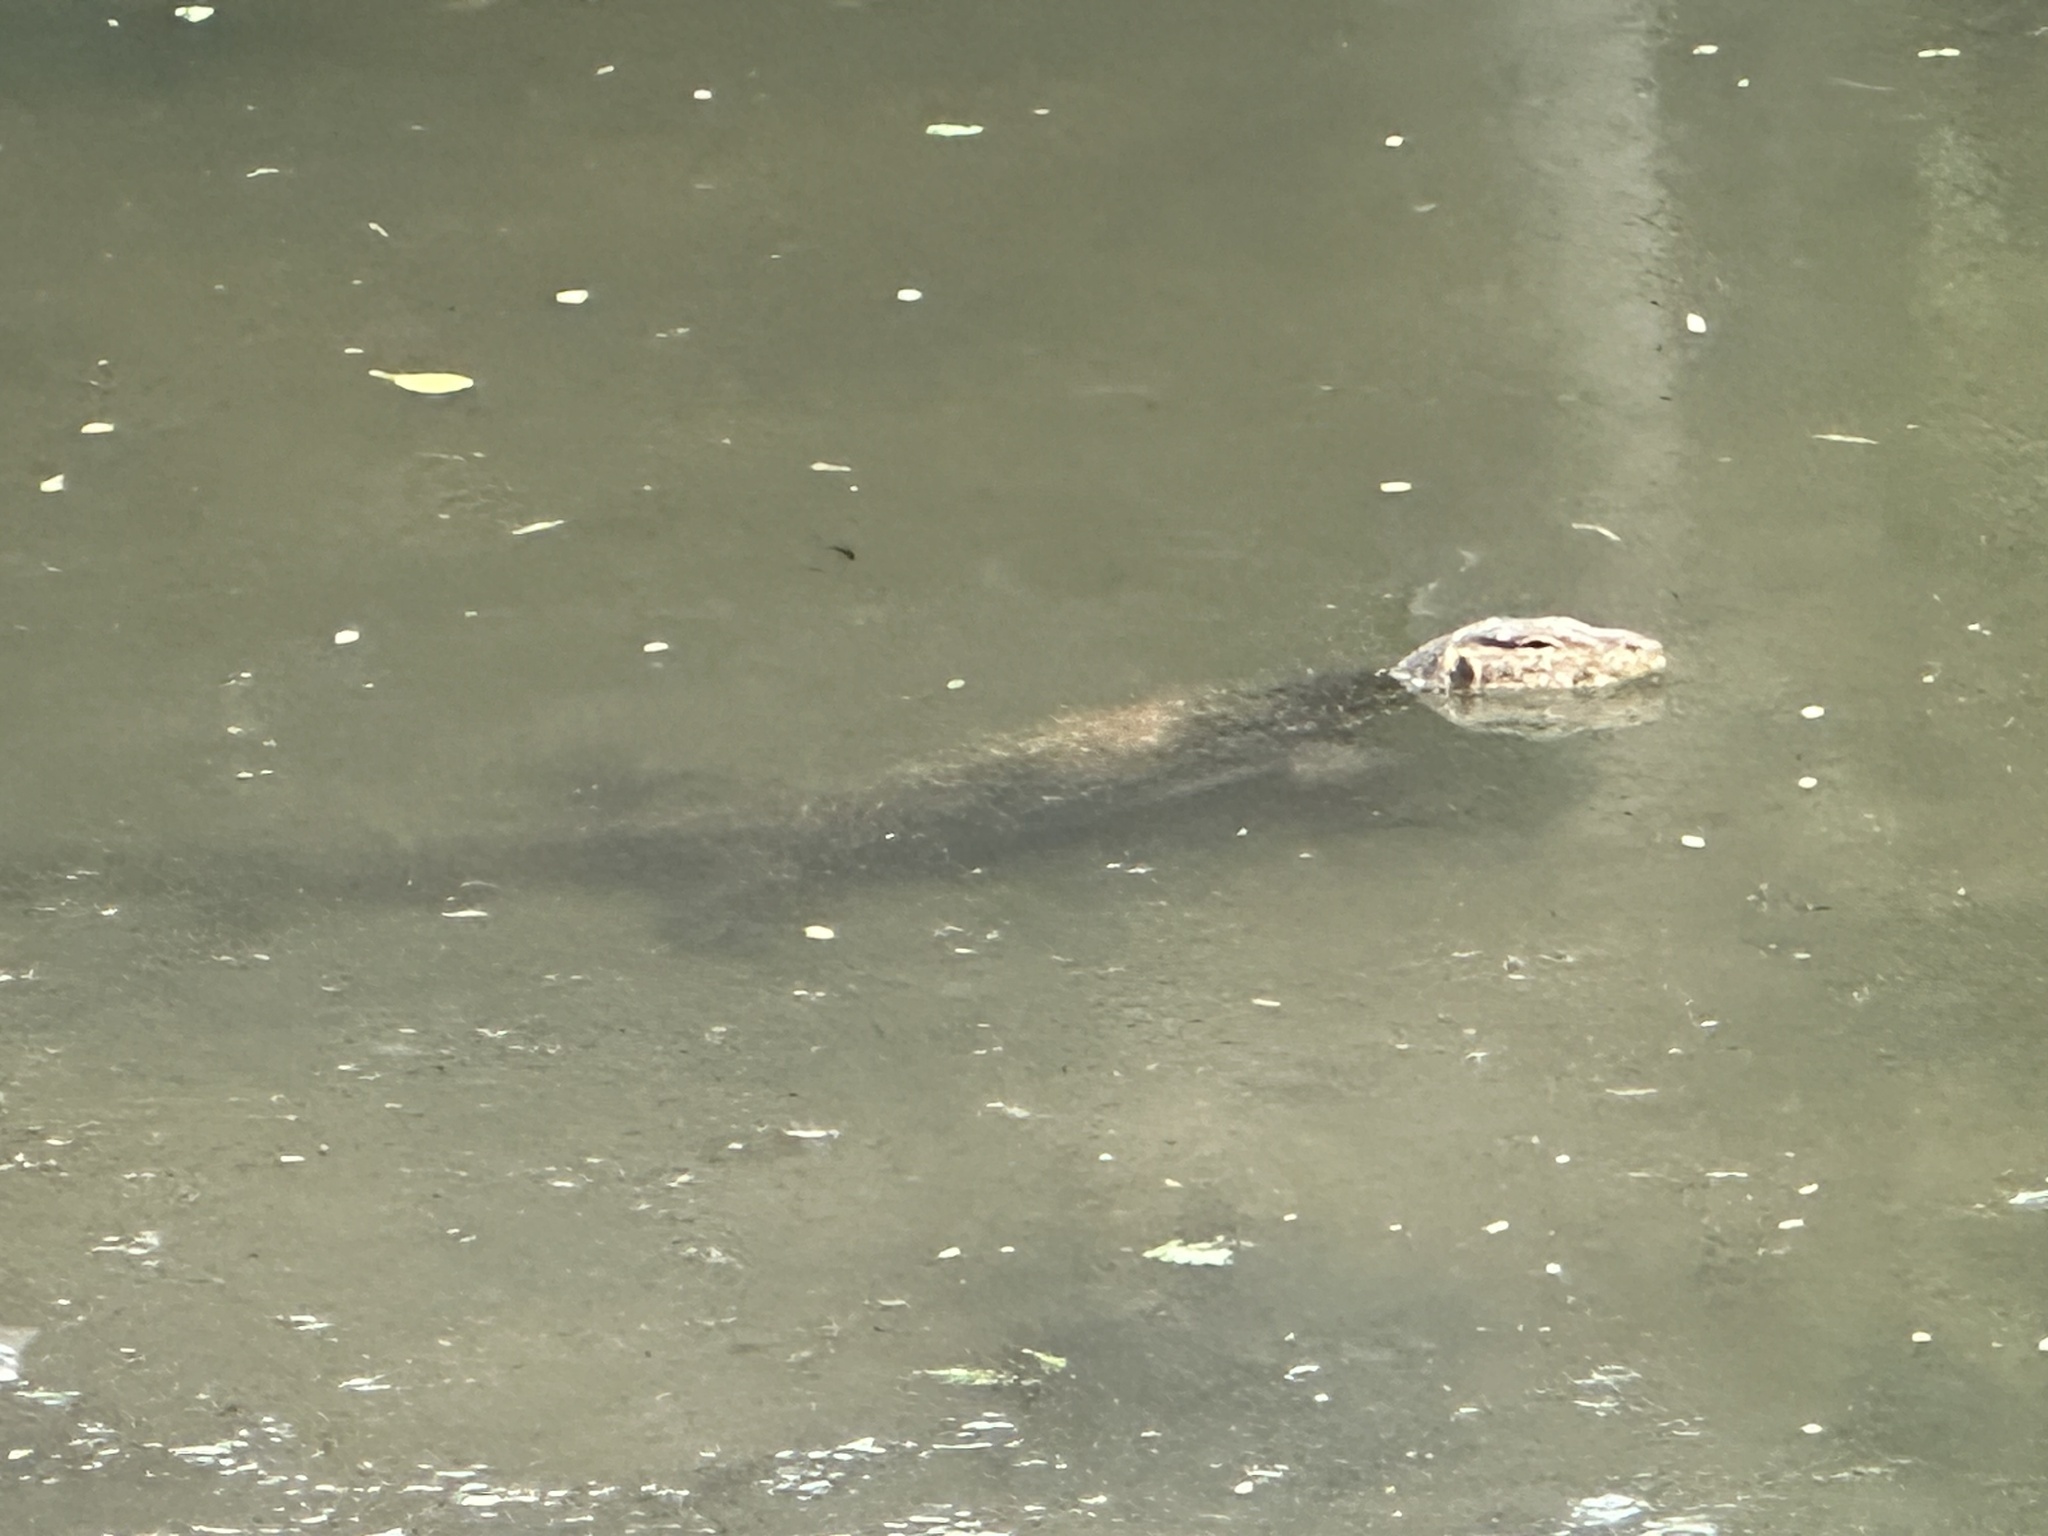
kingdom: Animalia
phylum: Chordata
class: Squamata
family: Varanidae
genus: Varanus
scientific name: Varanus salvator
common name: Common water monitor
